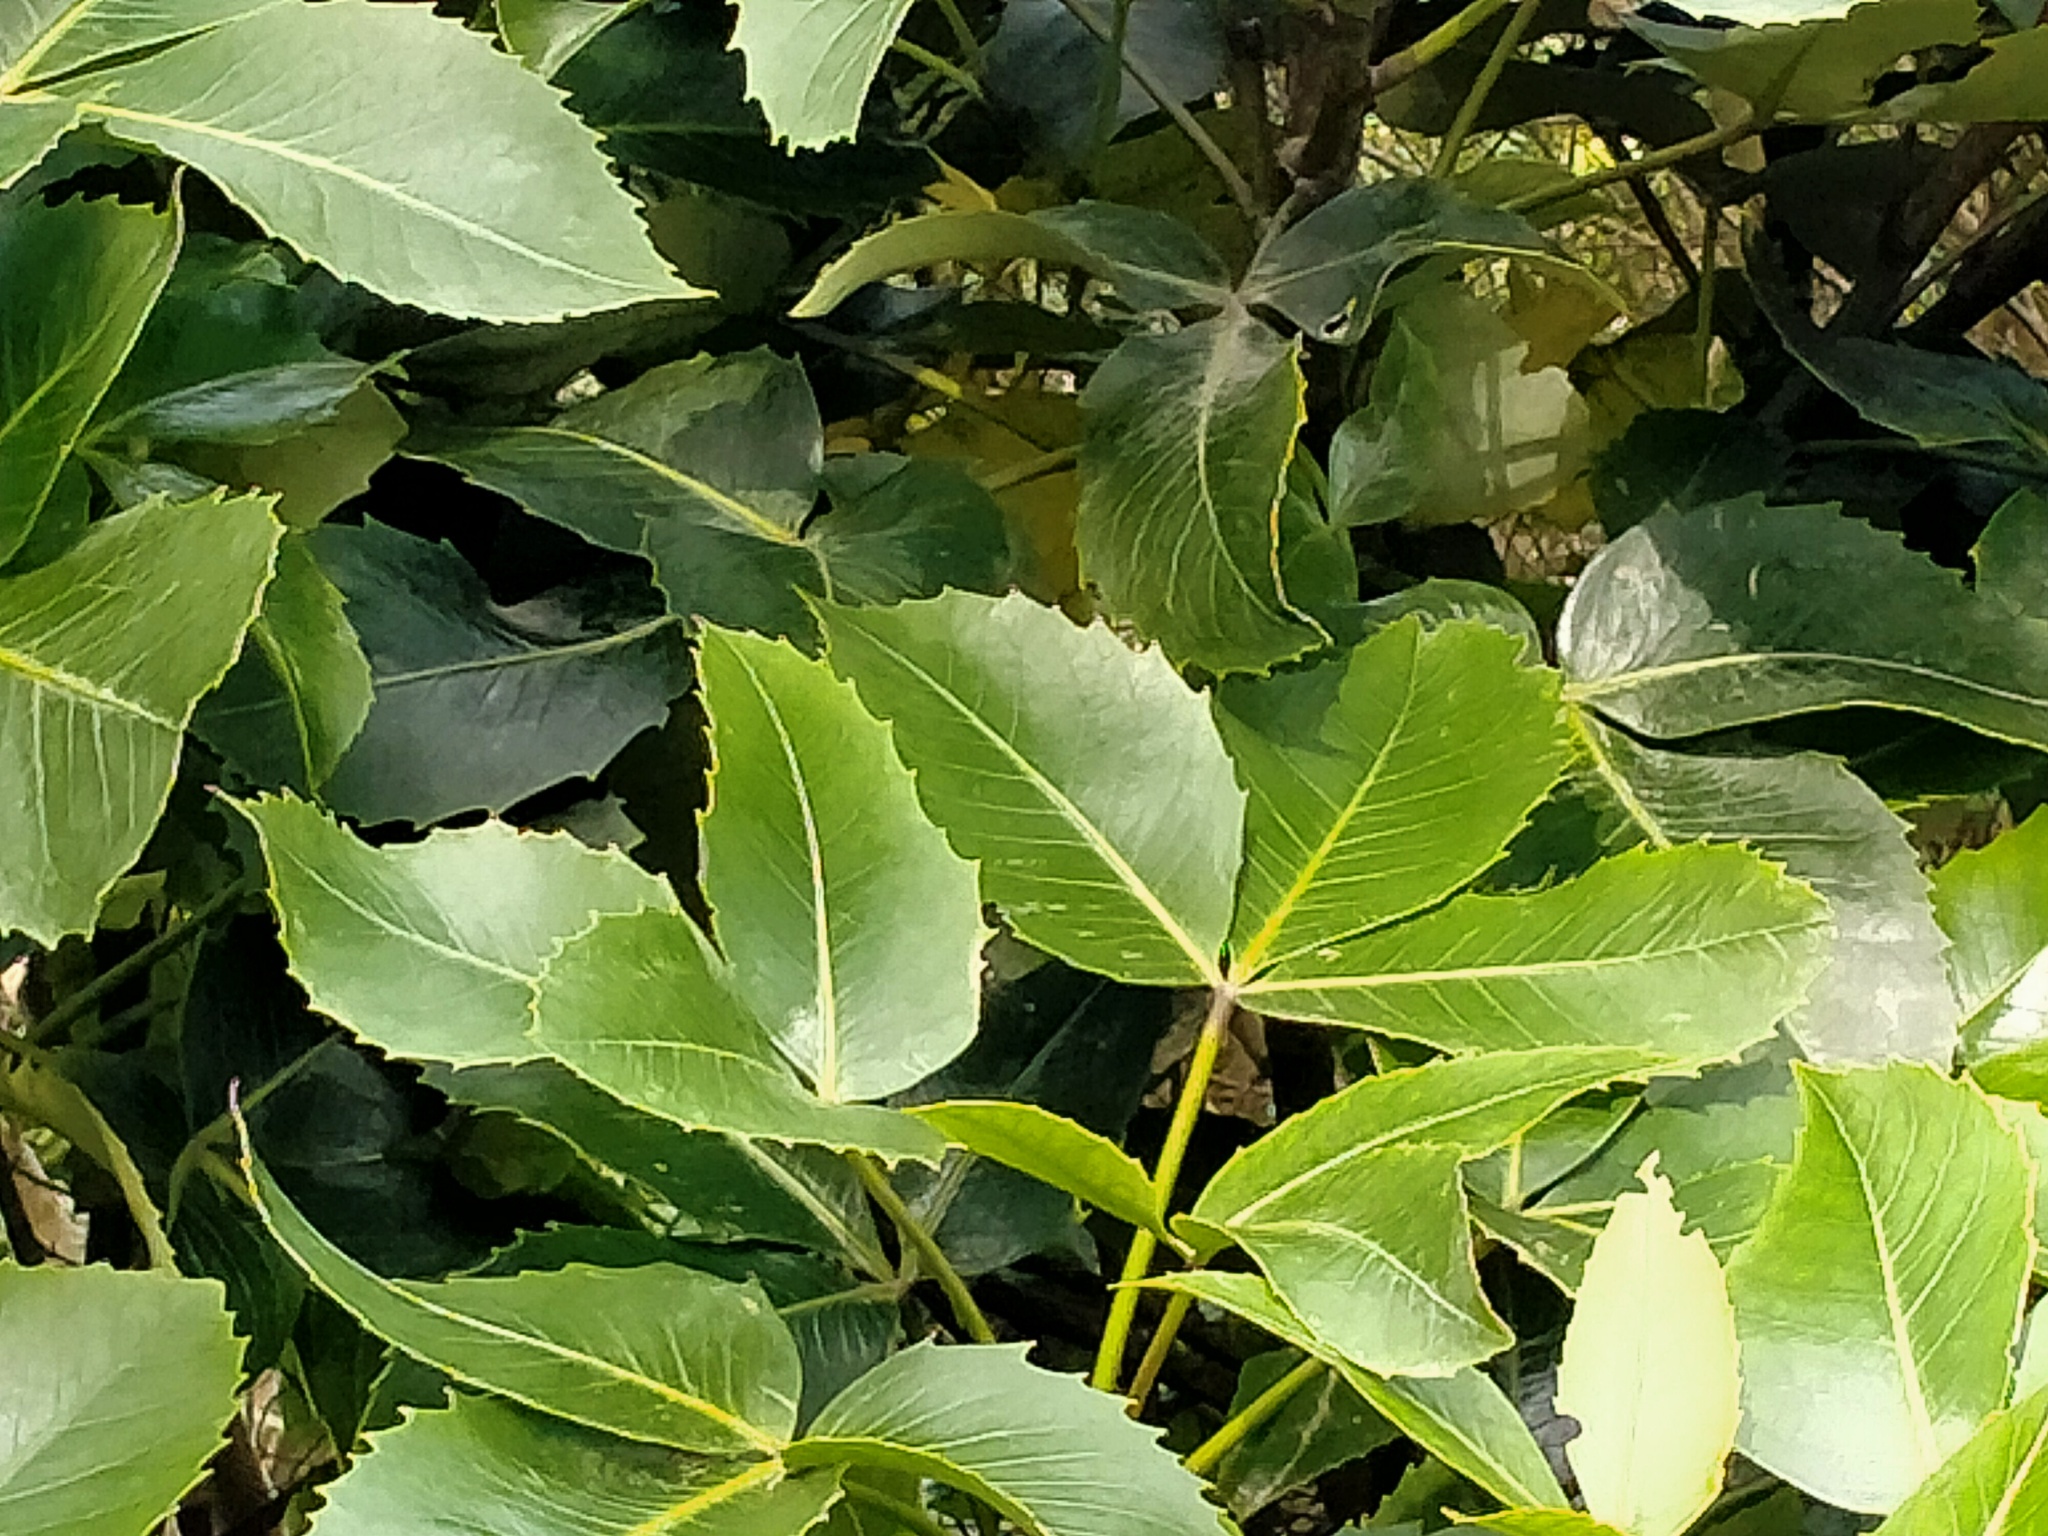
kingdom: Plantae
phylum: Tracheophyta
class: Magnoliopsida
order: Apiales
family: Araliaceae
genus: Neopanax
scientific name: Neopanax colensoi
